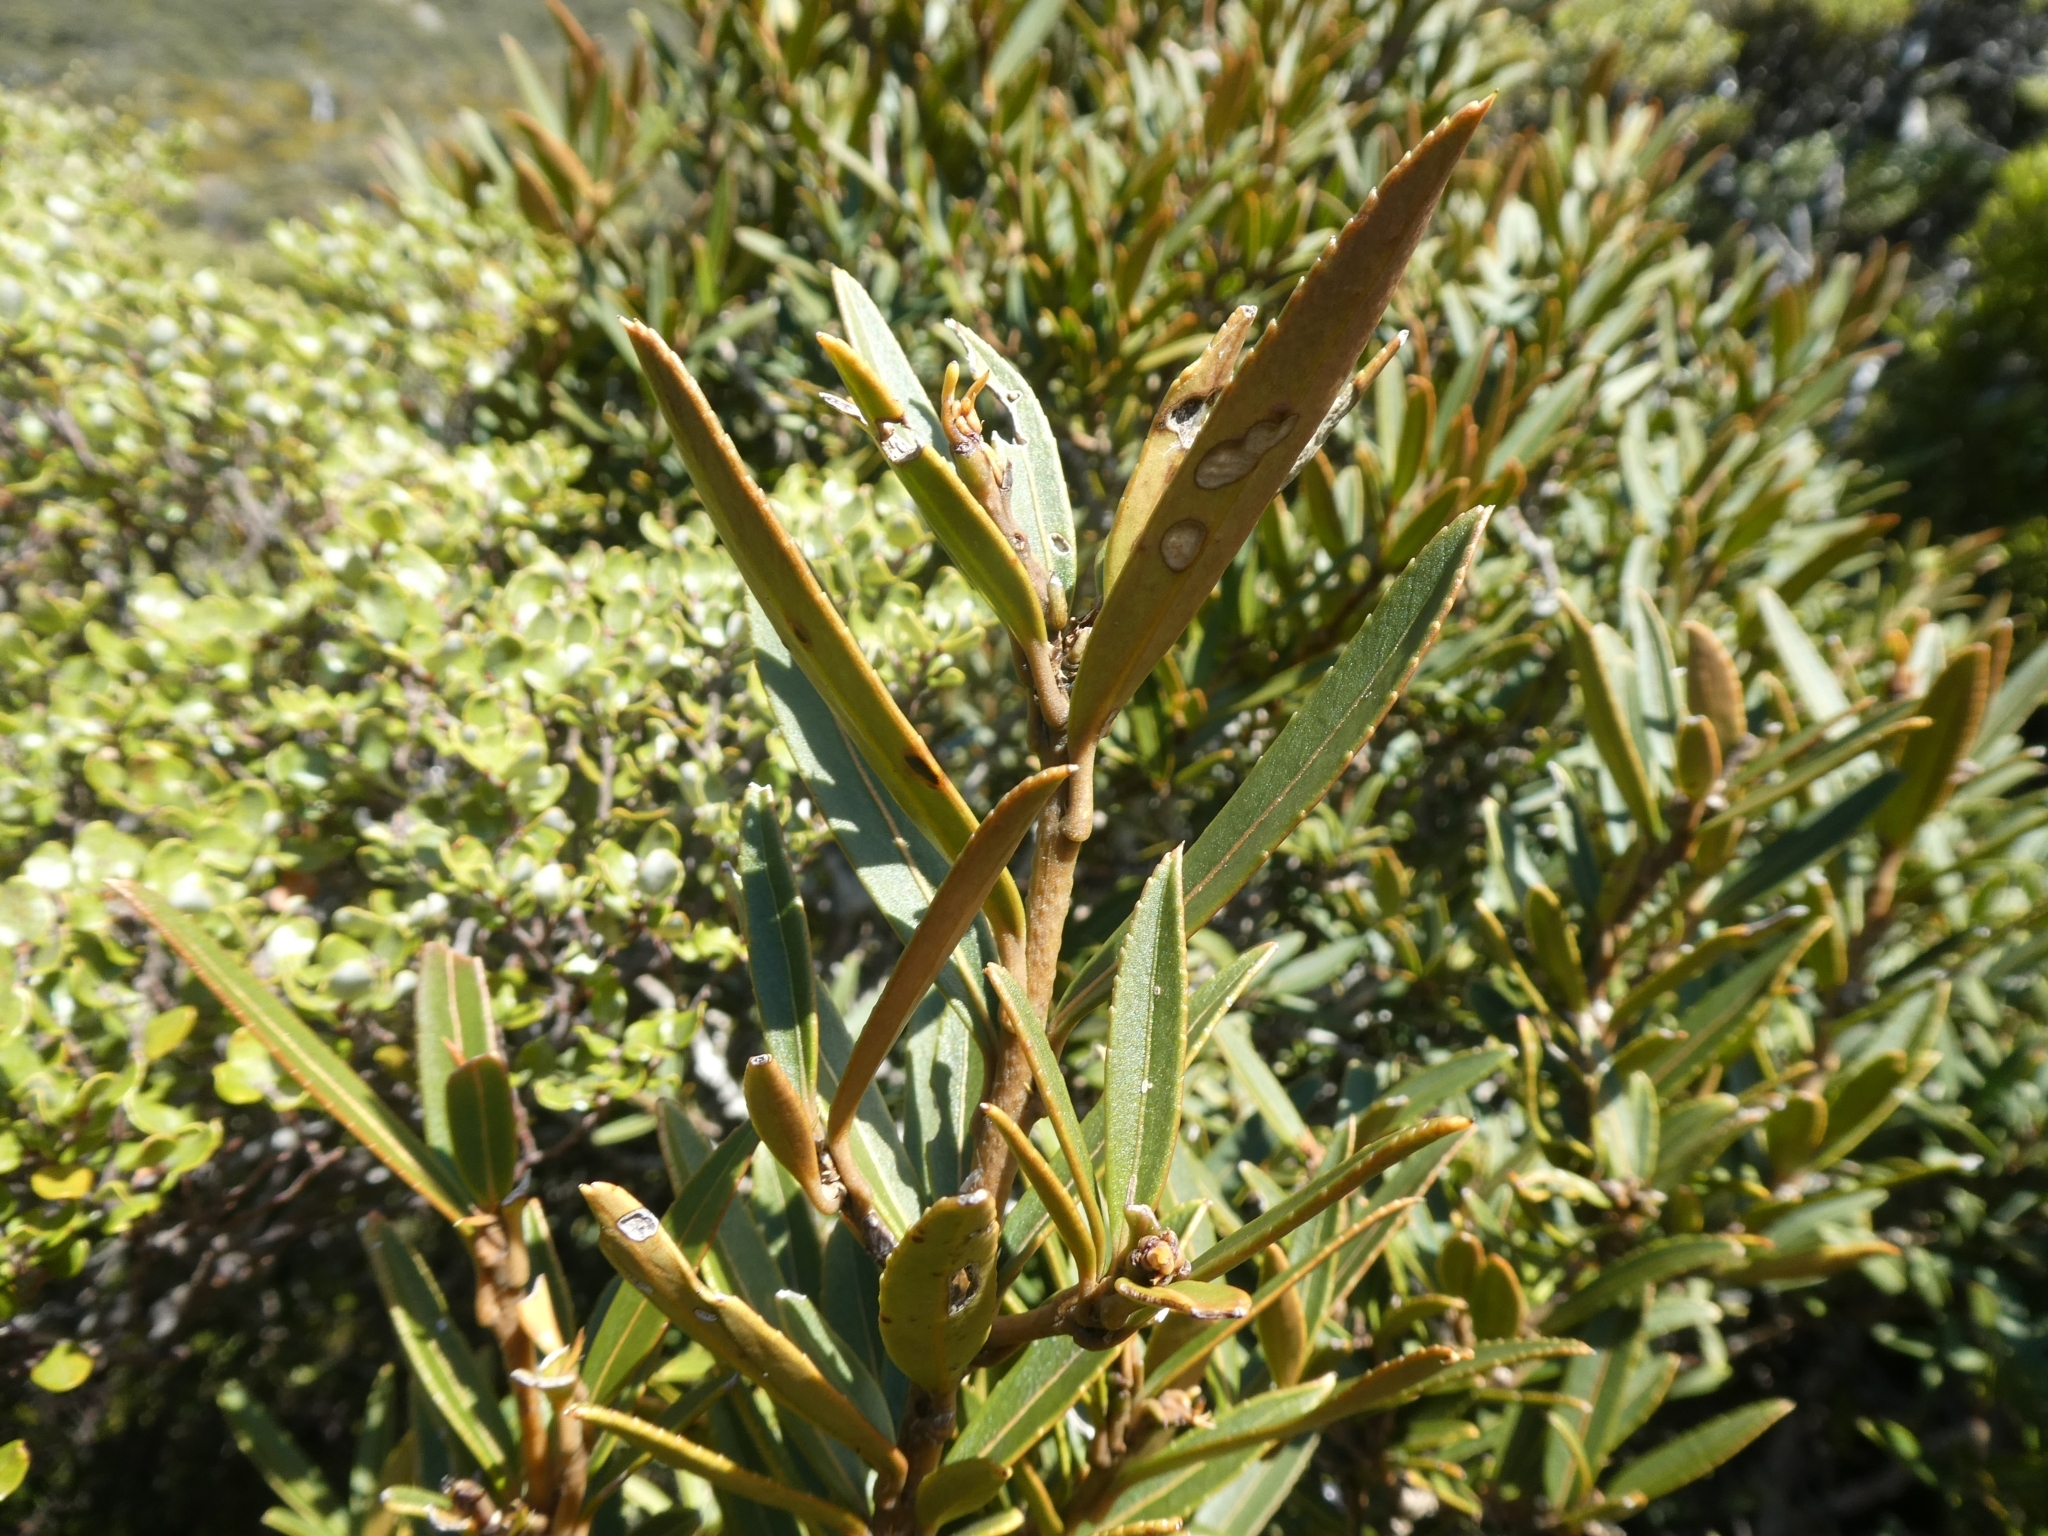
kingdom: Plantae
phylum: Tracheophyta
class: Magnoliopsida
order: Apiales
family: Araliaceae
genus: Pseudopanax
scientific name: Pseudopanax linearis
